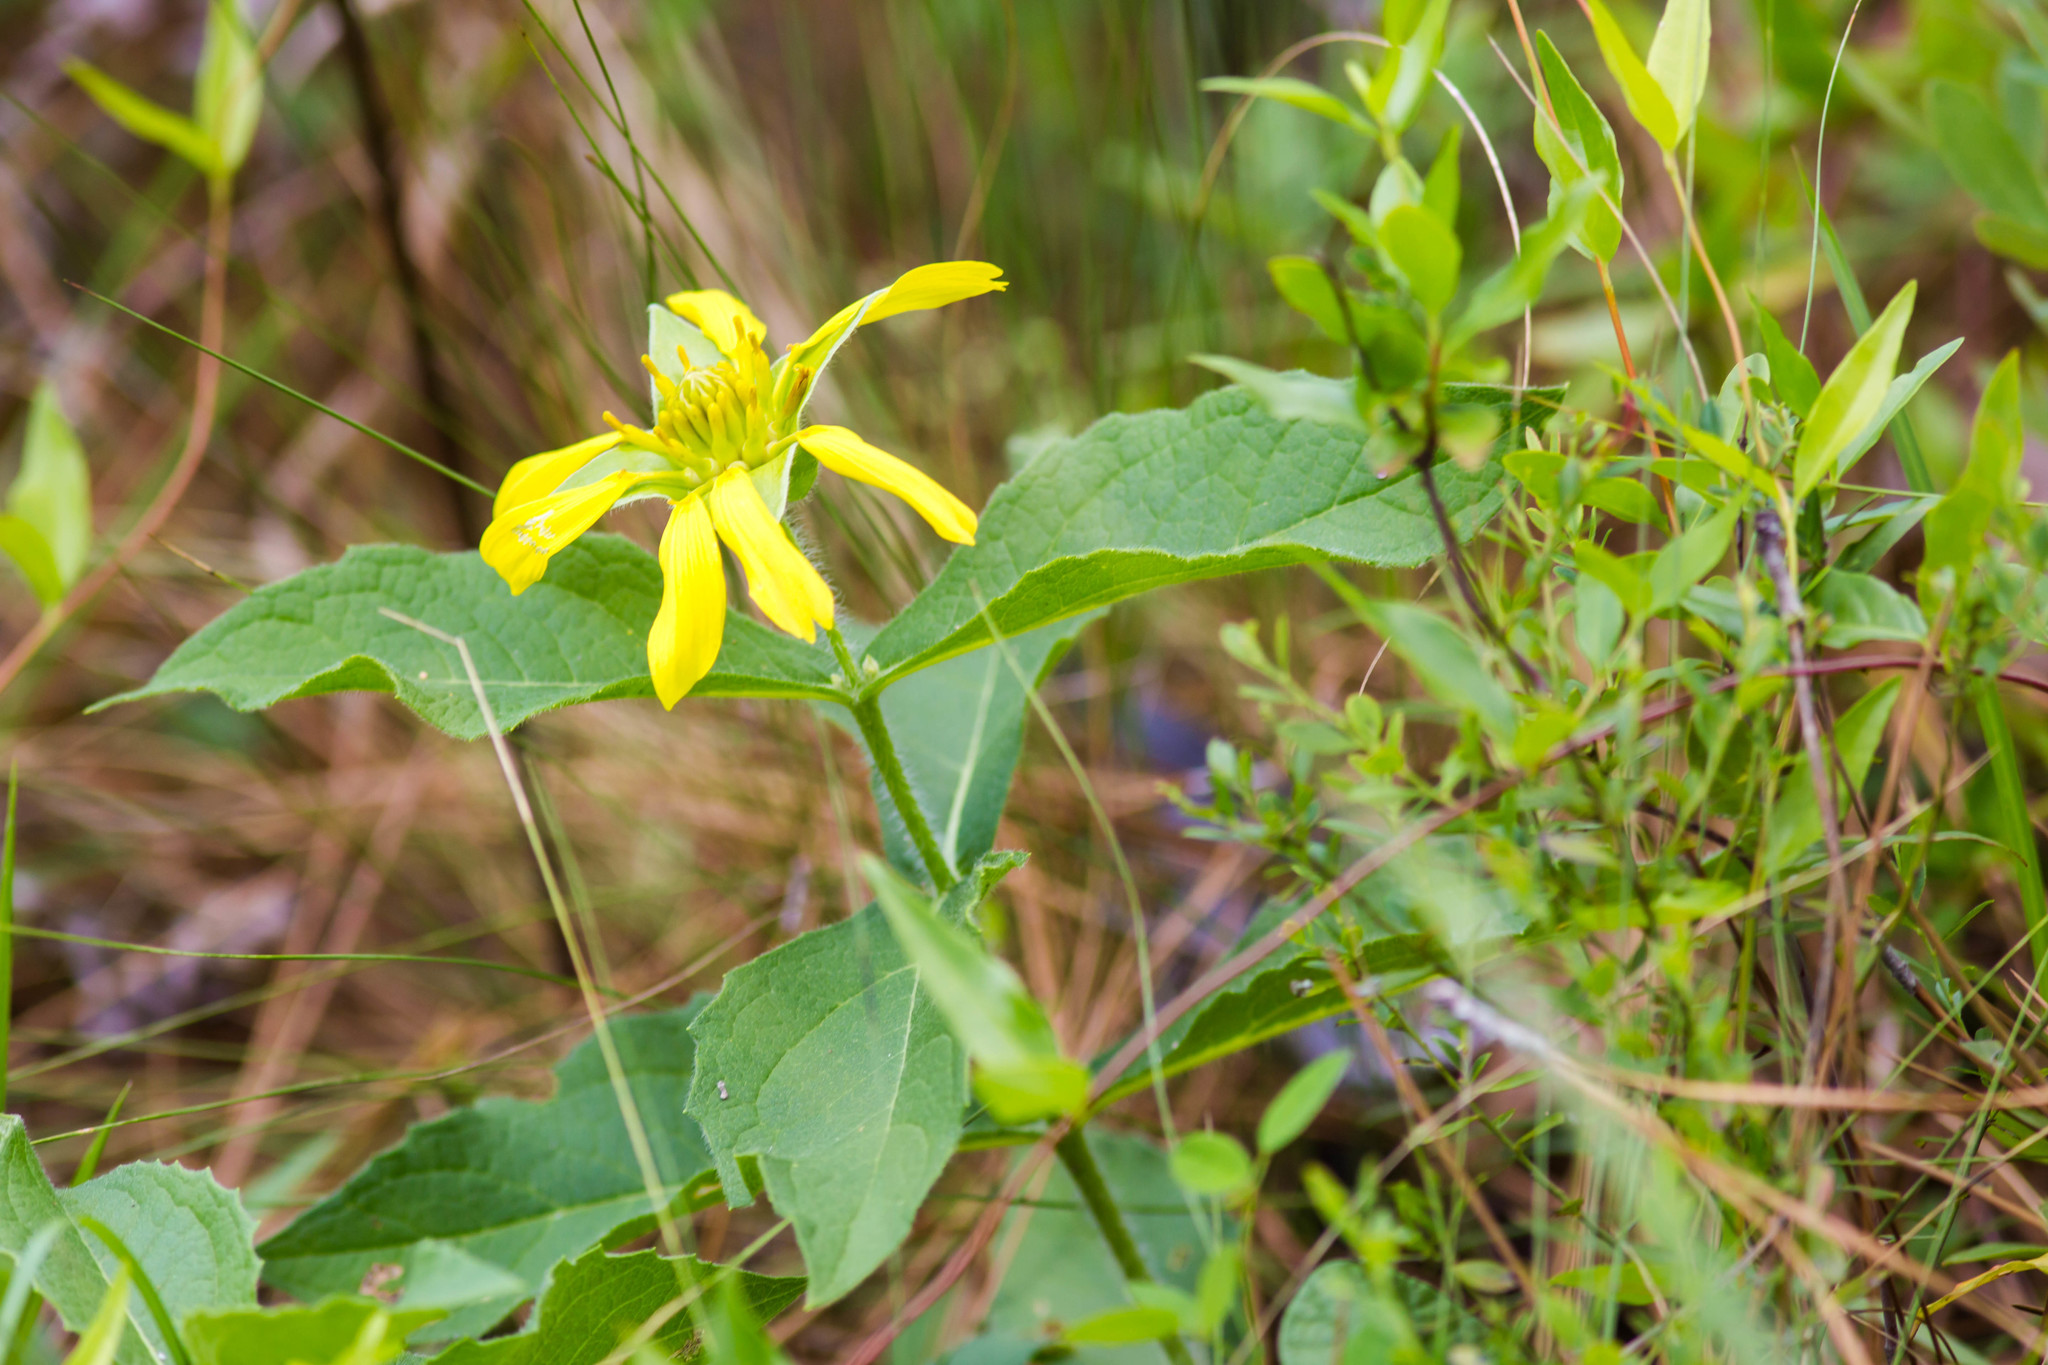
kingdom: Plantae
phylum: Tracheophyta
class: Magnoliopsida
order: Asterales
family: Asteraceae
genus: Tetragonotheca
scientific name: Tetragonotheca helianthoides
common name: Pineland-ginseng
